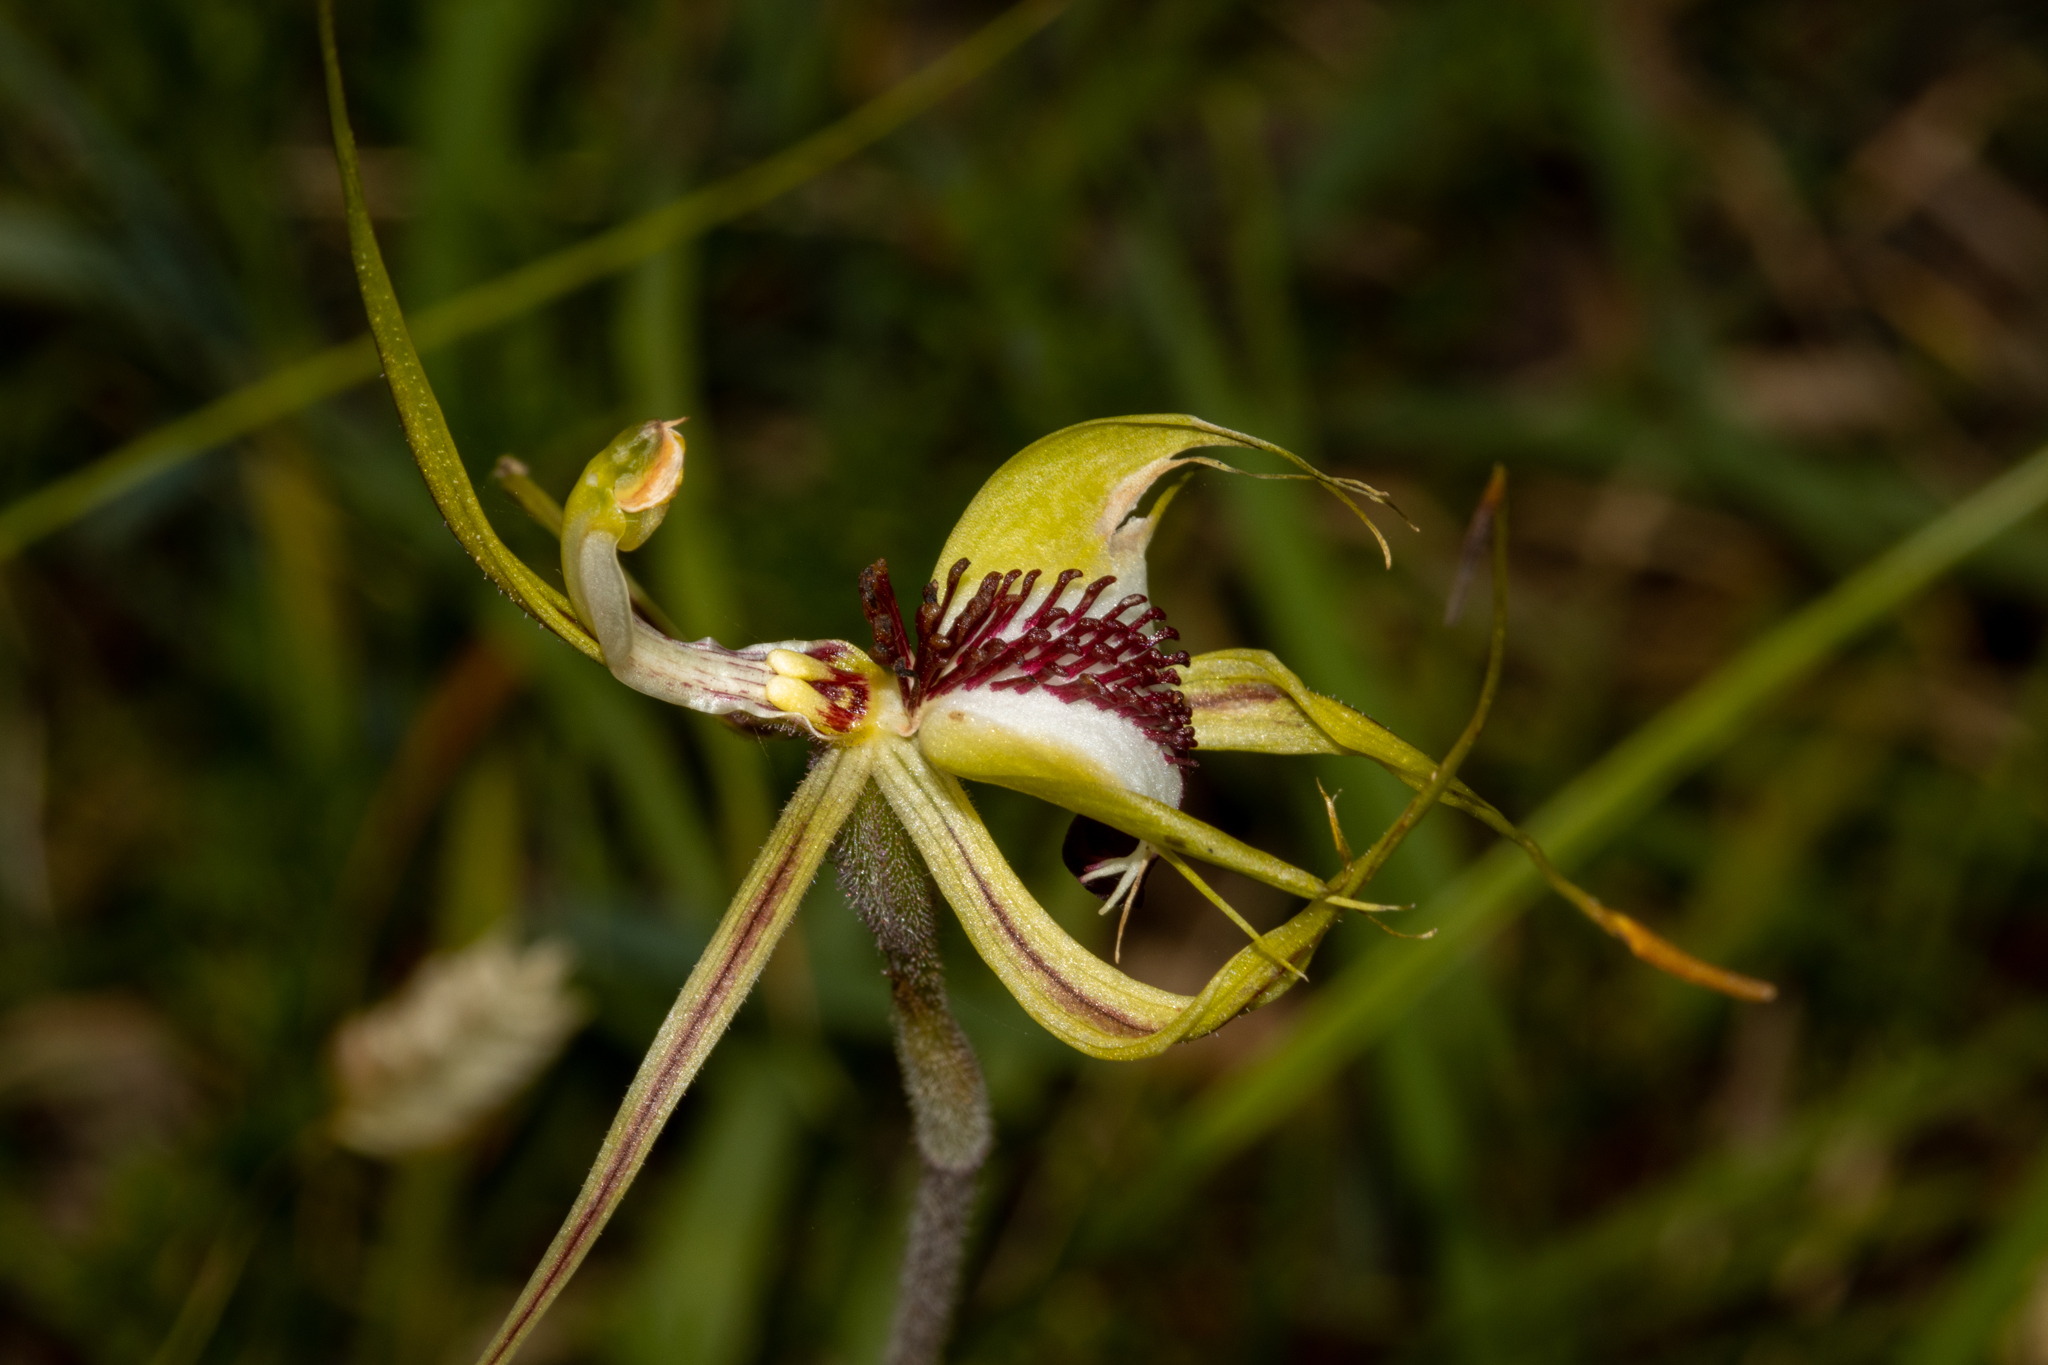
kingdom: Plantae
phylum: Tracheophyta
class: Liliopsida
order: Asparagales
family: Orchidaceae
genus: Caladenia
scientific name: Caladenia tentaculata
